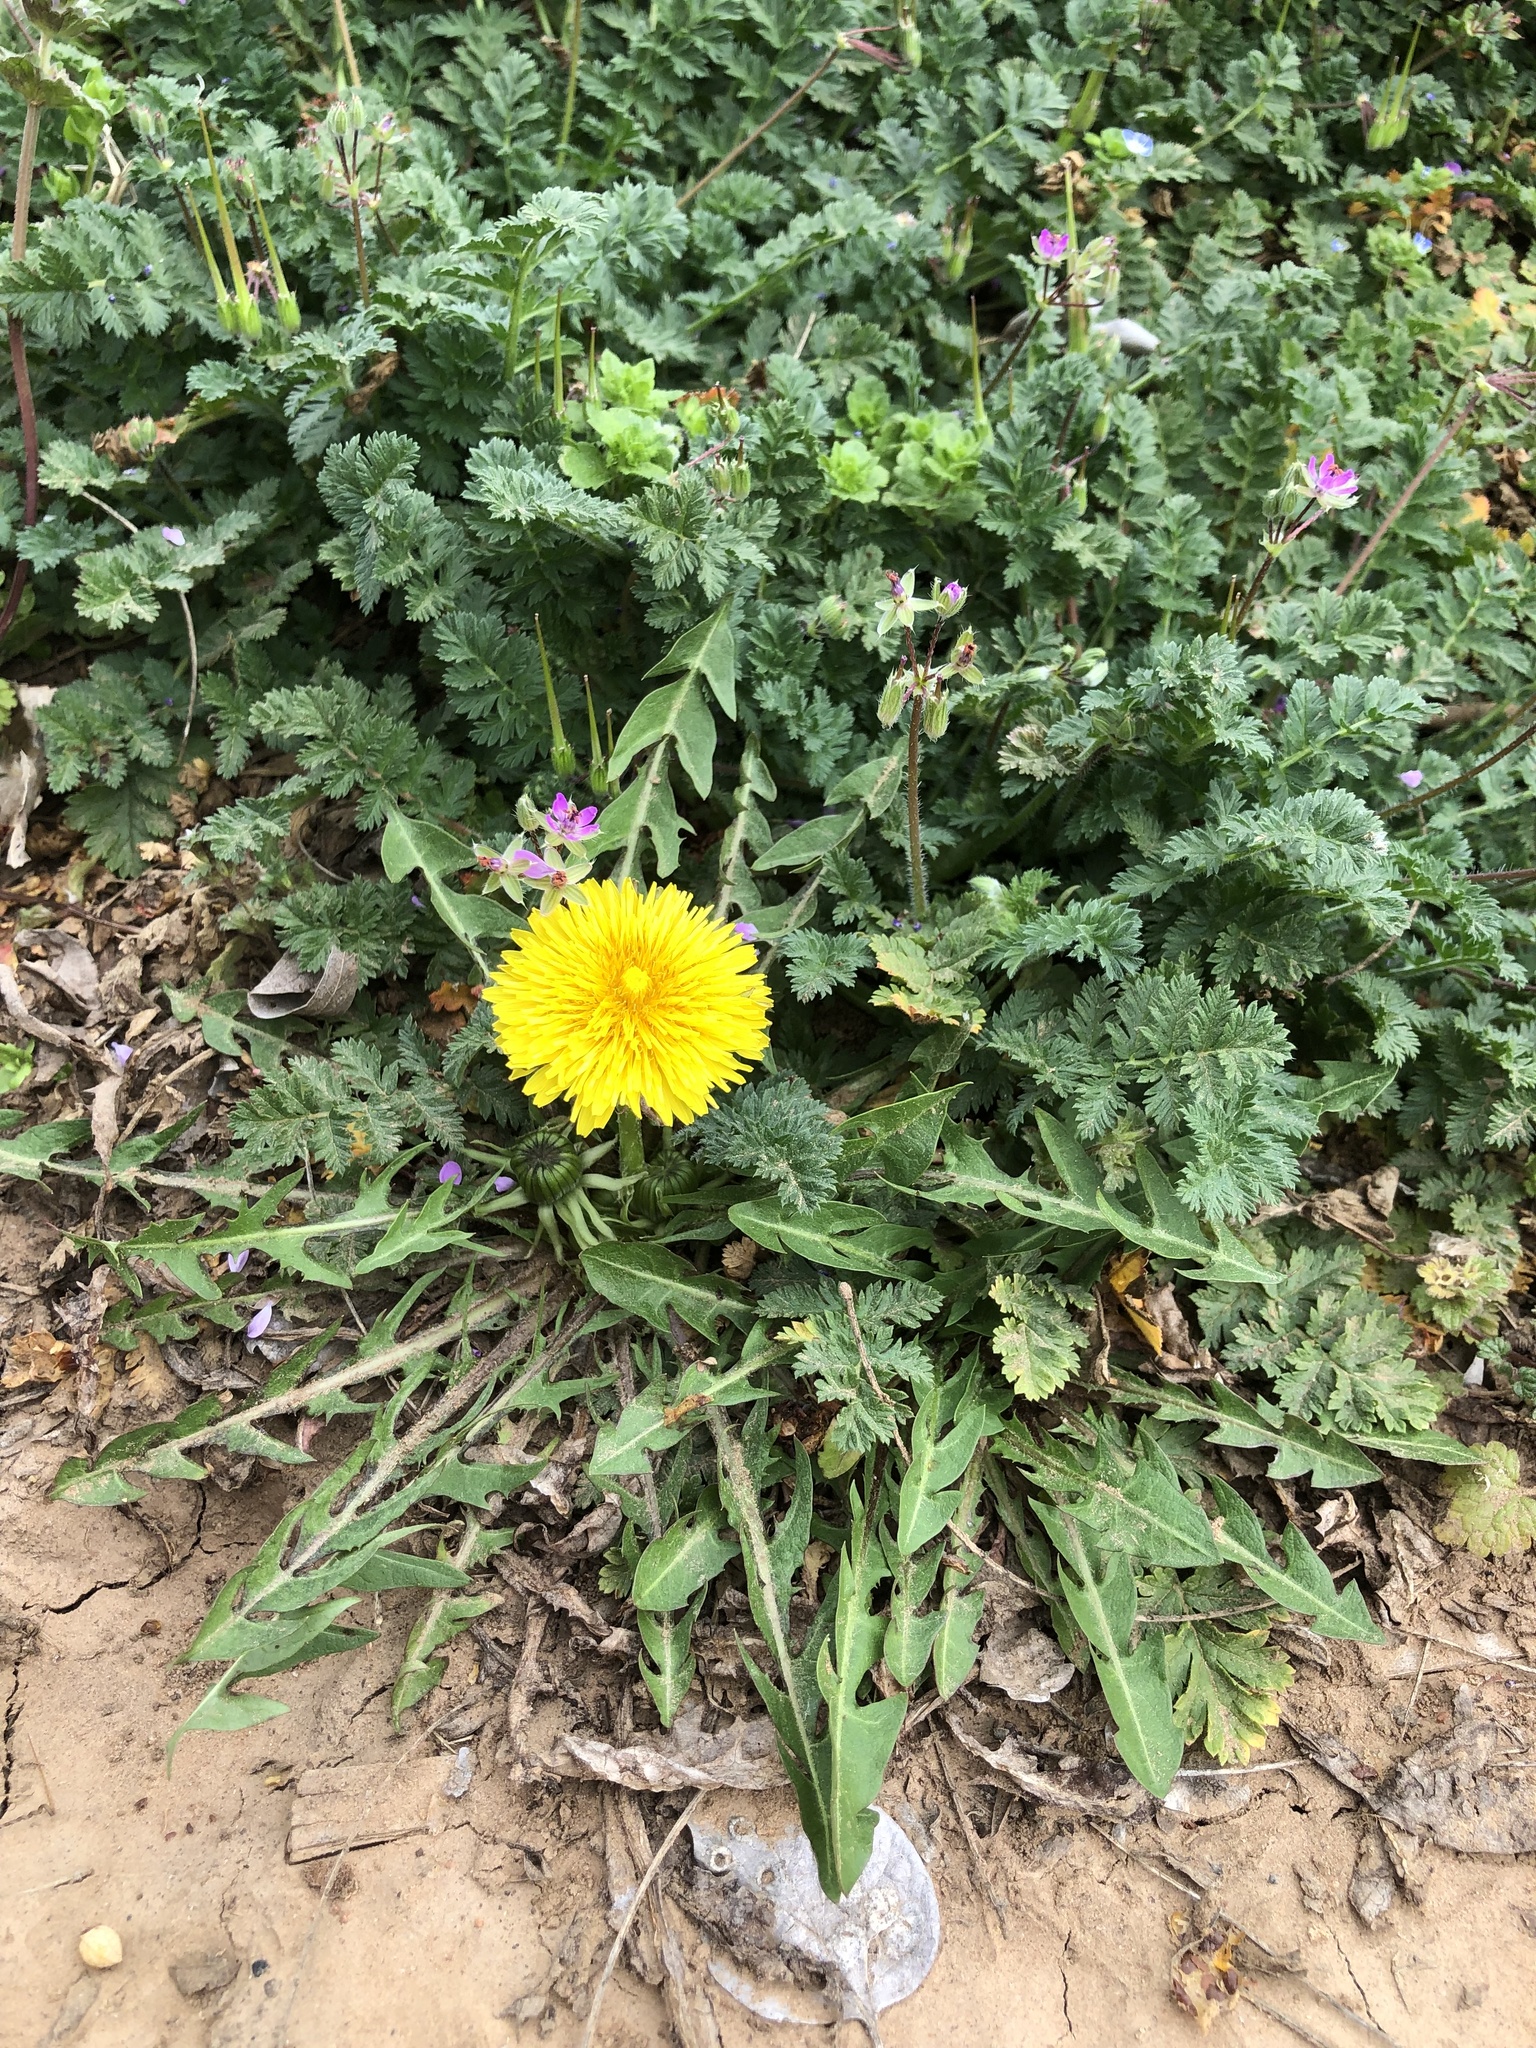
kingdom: Plantae
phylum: Tracheophyta
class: Magnoliopsida
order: Asterales
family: Asteraceae
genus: Taraxacum
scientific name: Taraxacum
